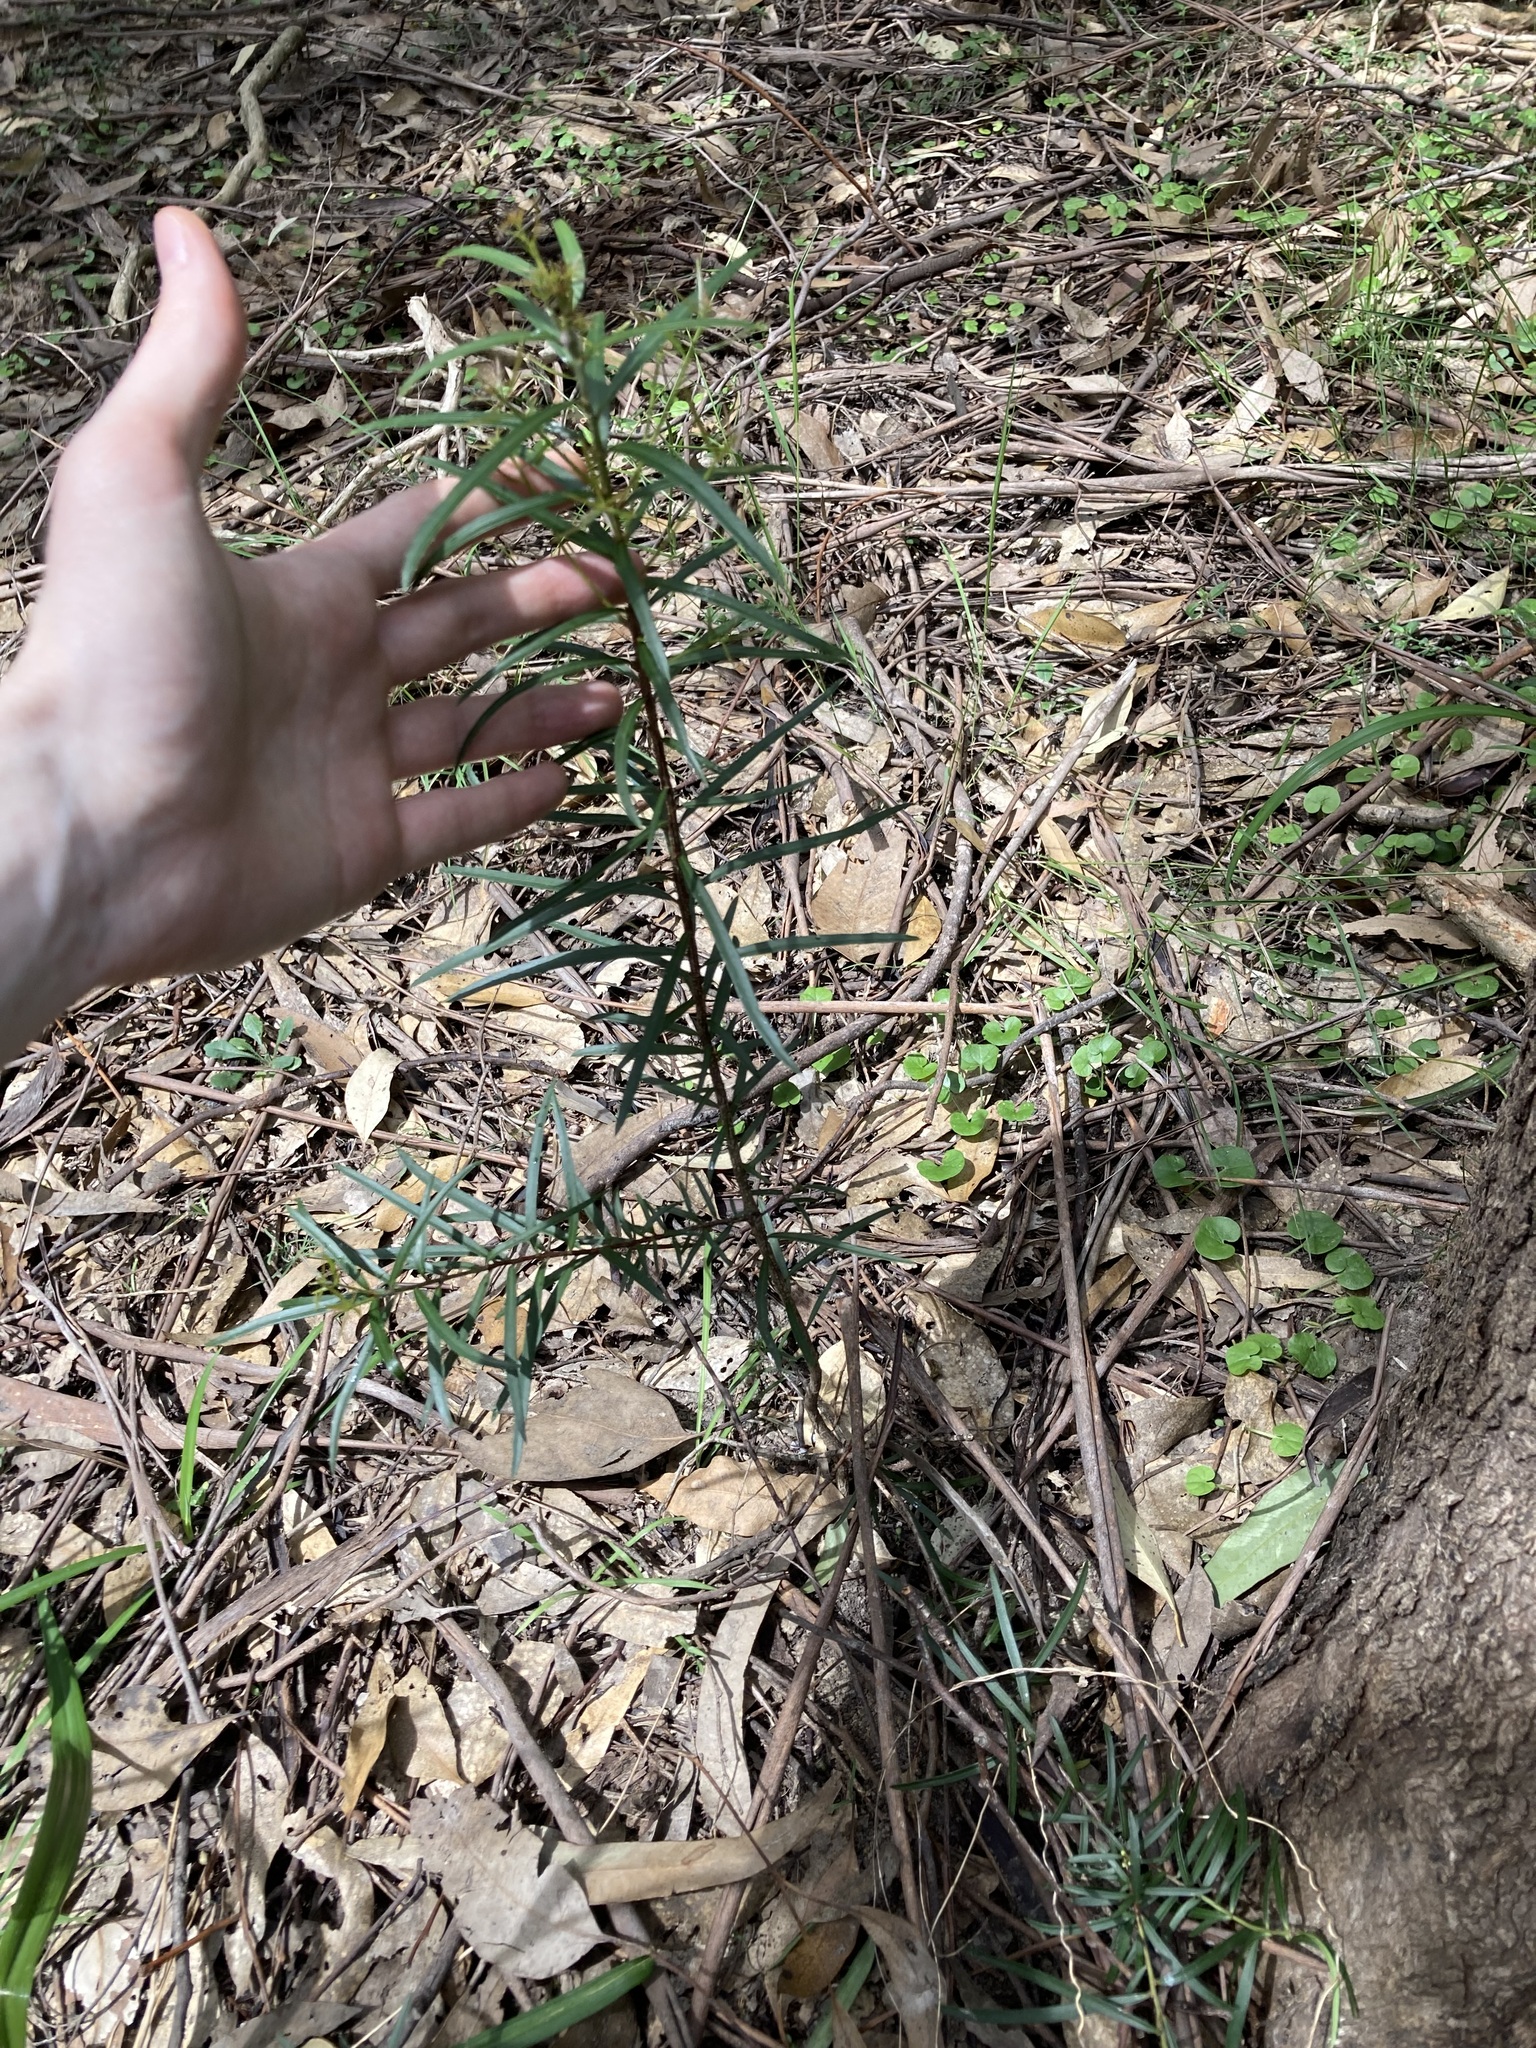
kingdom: Plantae
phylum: Tracheophyta
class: Magnoliopsida
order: Celastrales
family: Celastraceae
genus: Denhamia
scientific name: Denhamia silvestris
